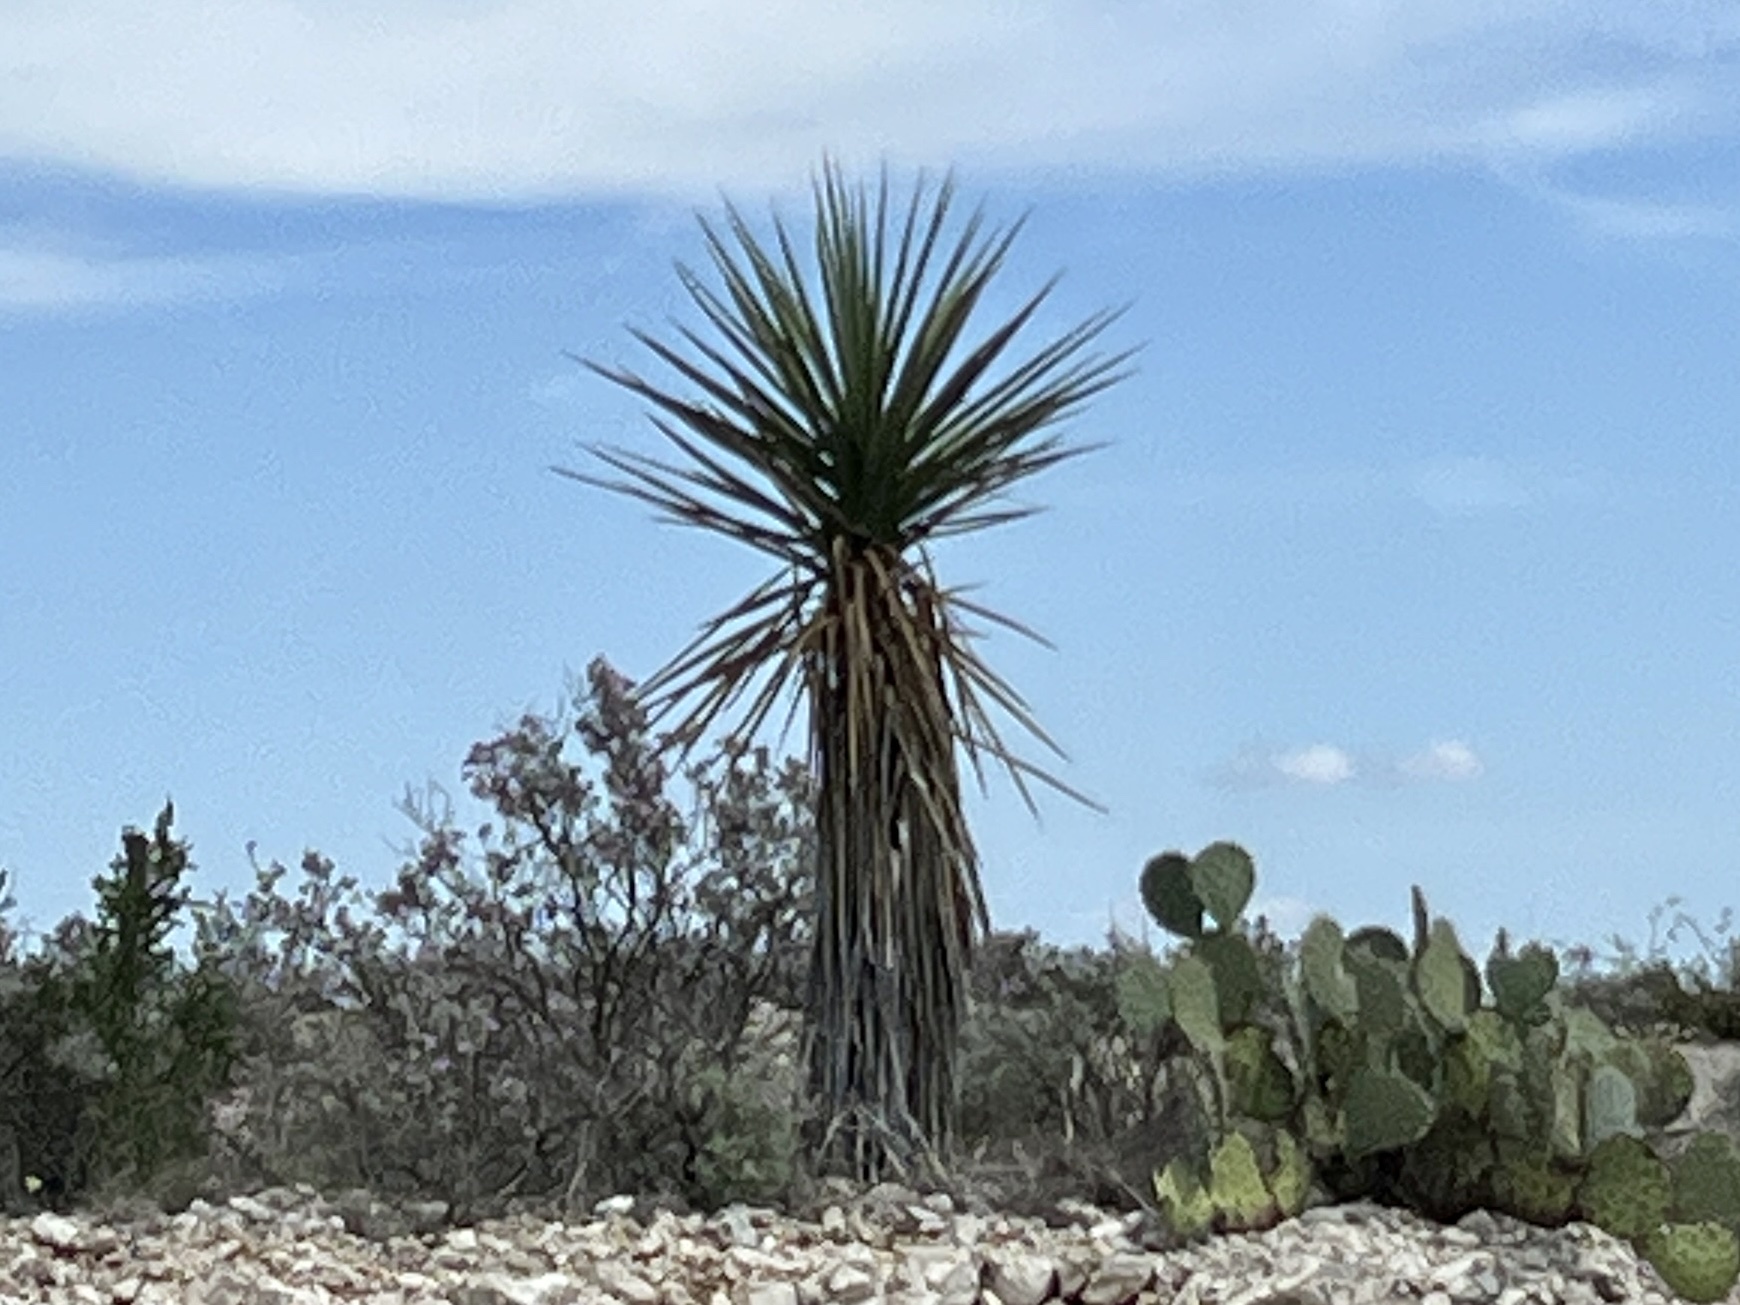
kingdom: Plantae
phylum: Tracheophyta
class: Liliopsida
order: Asparagales
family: Asparagaceae
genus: Yucca
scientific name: Yucca treculiana
